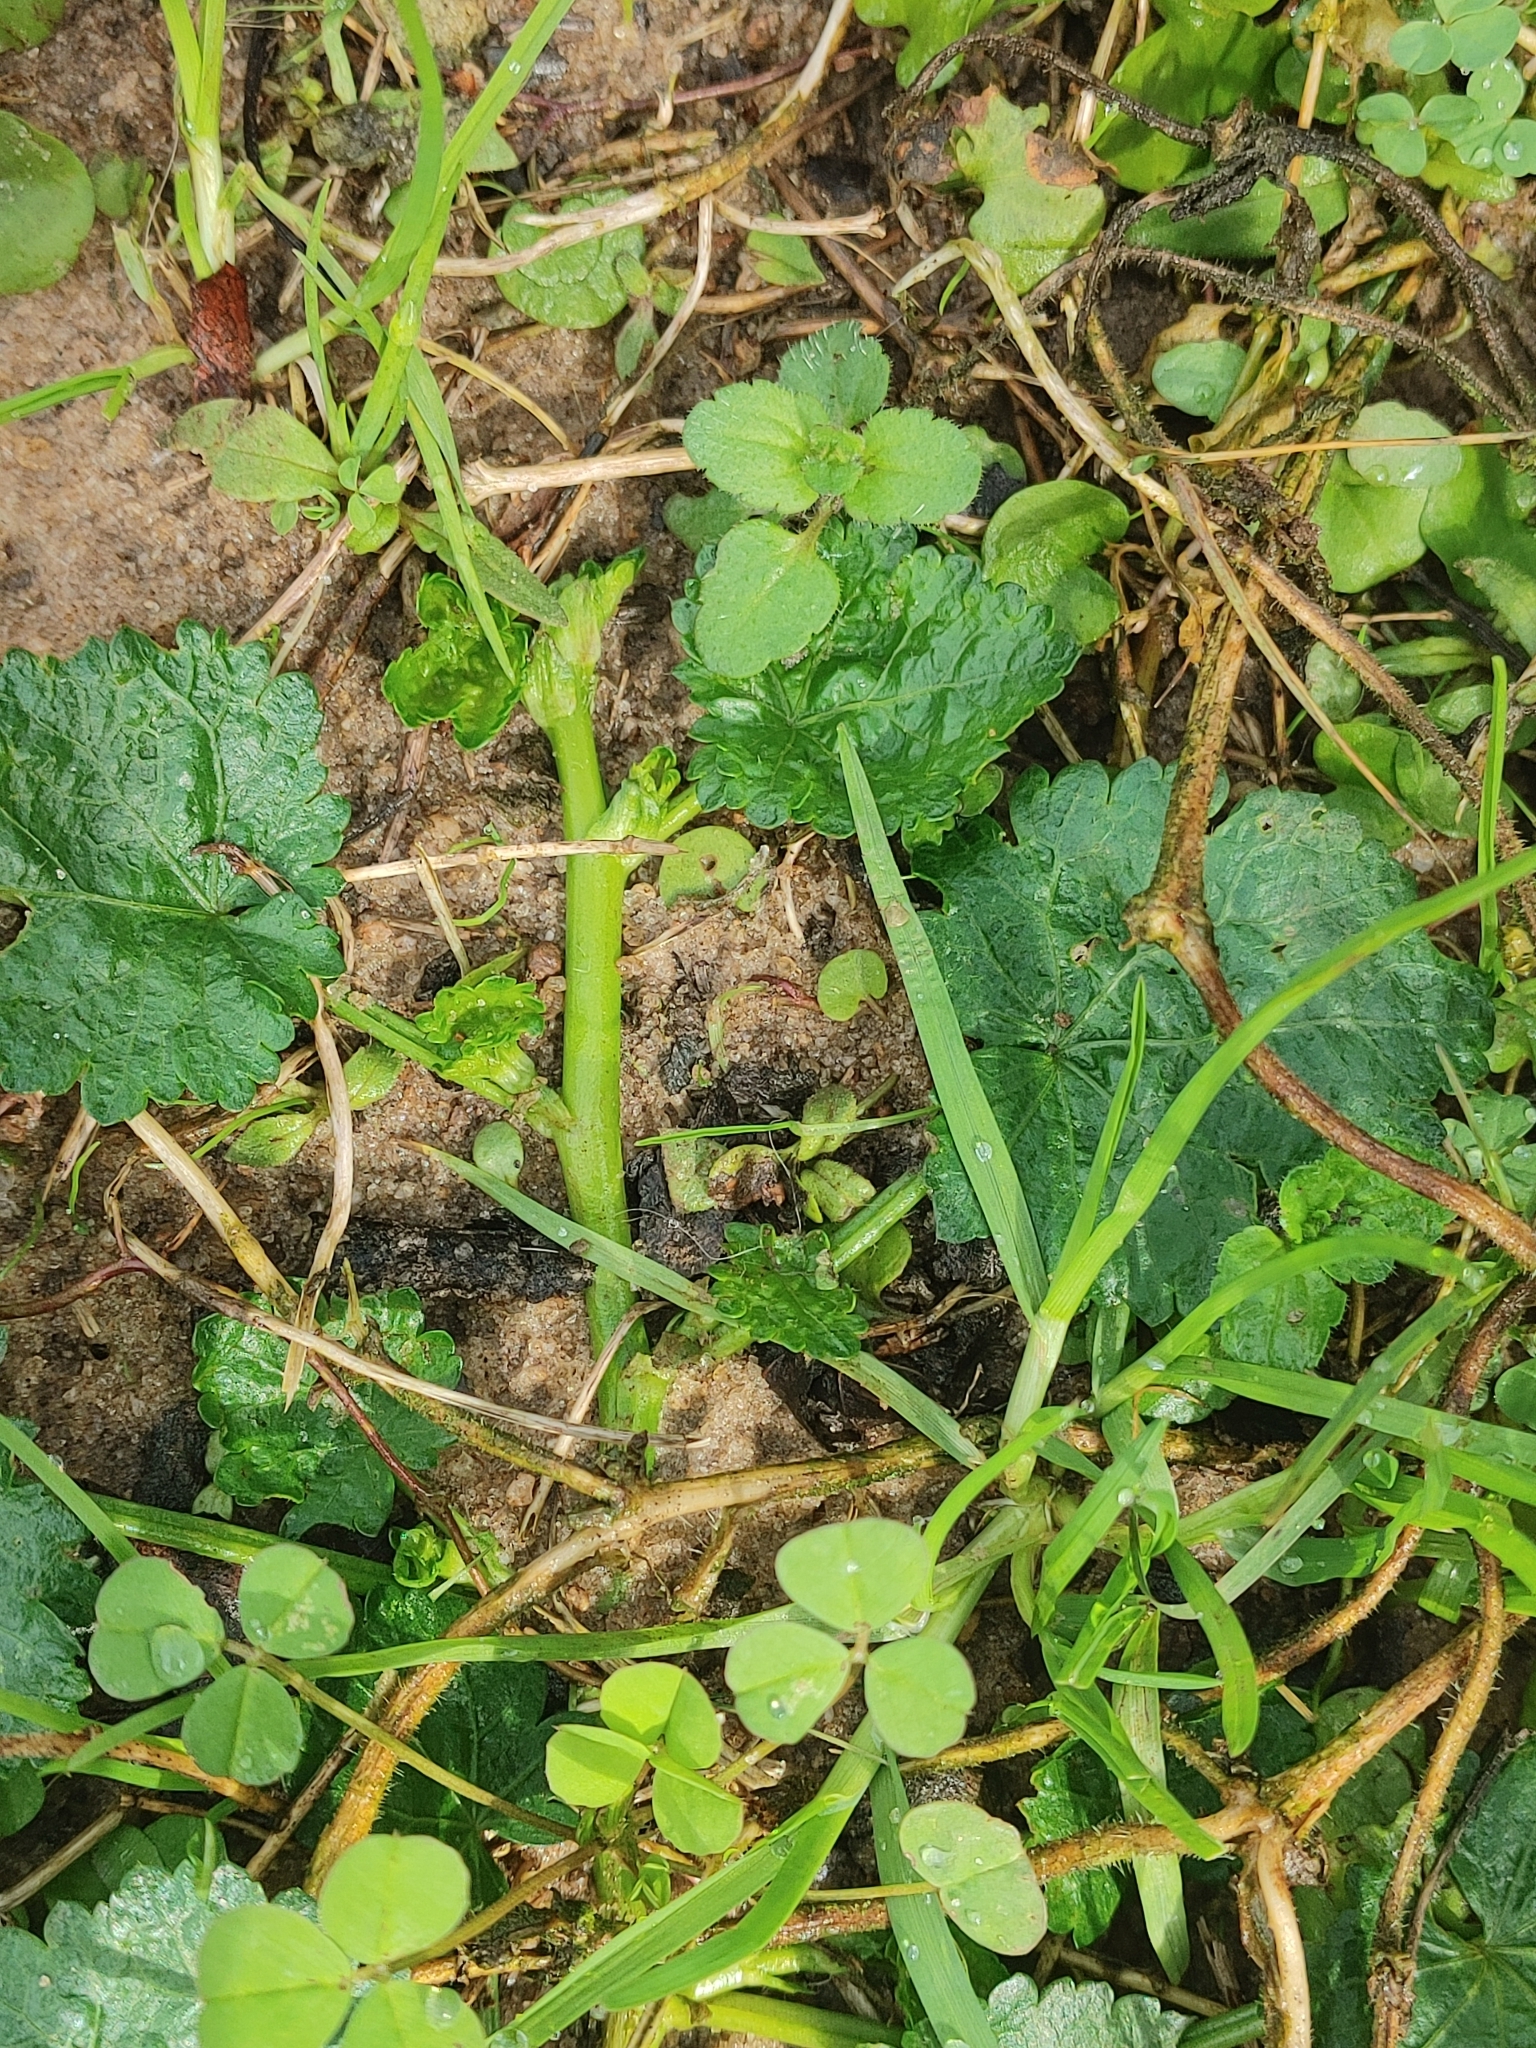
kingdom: Plantae
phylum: Tracheophyta
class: Magnoliopsida
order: Malvales
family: Malvaceae
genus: Modiola
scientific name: Modiola caroliniana
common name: Carolina bristlemallow
